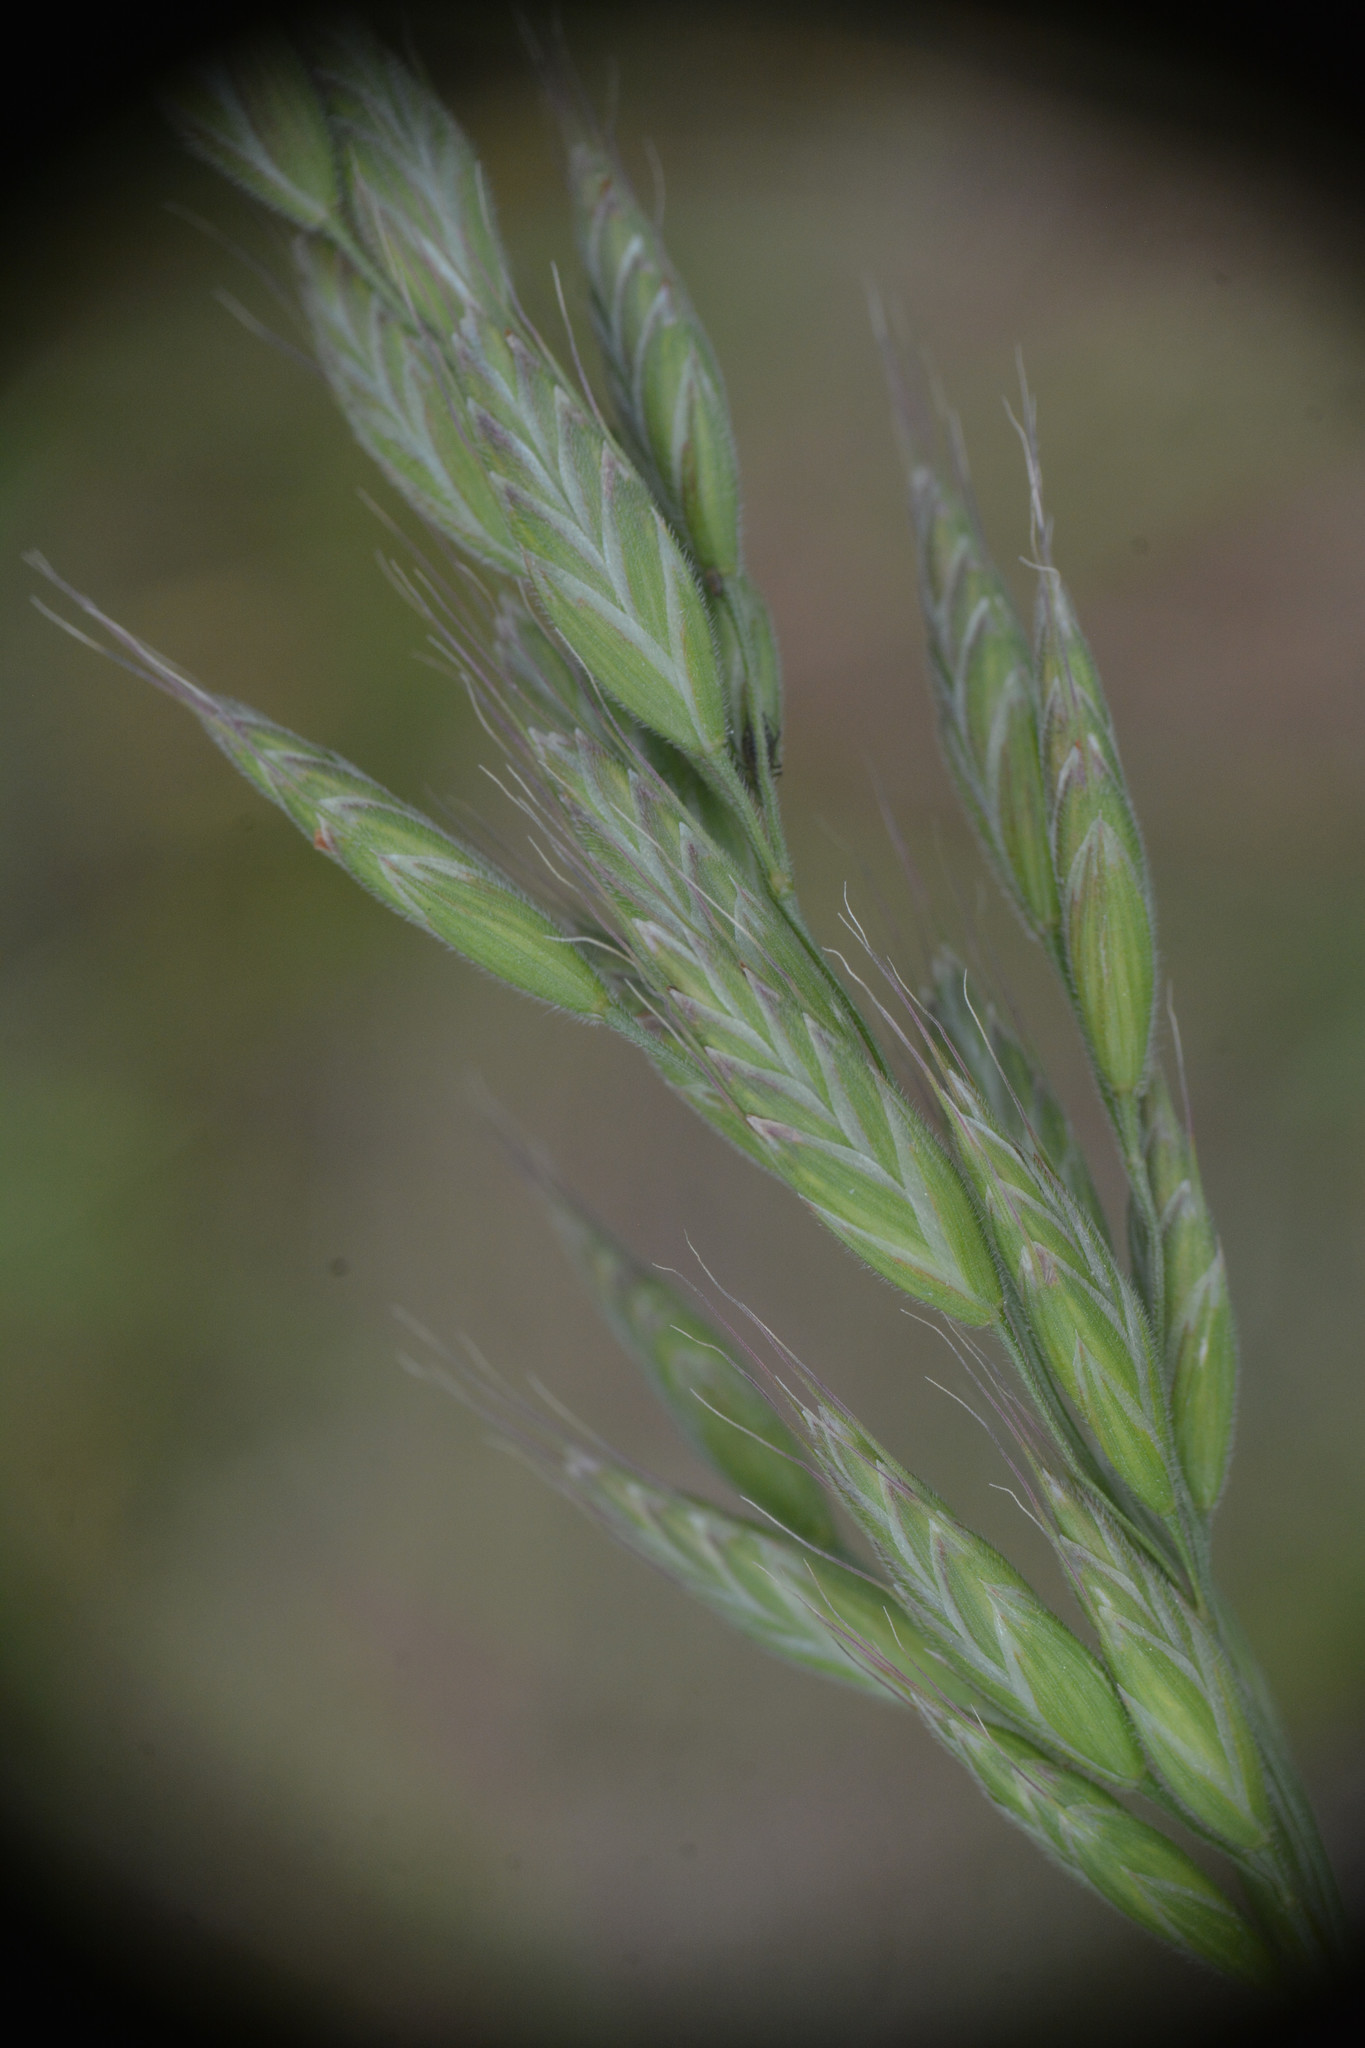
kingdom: Plantae
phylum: Tracheophyta
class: Liliopsida
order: Poales
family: Poaceae
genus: Bromus
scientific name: Bromus hordeaceus
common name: Soft brome
